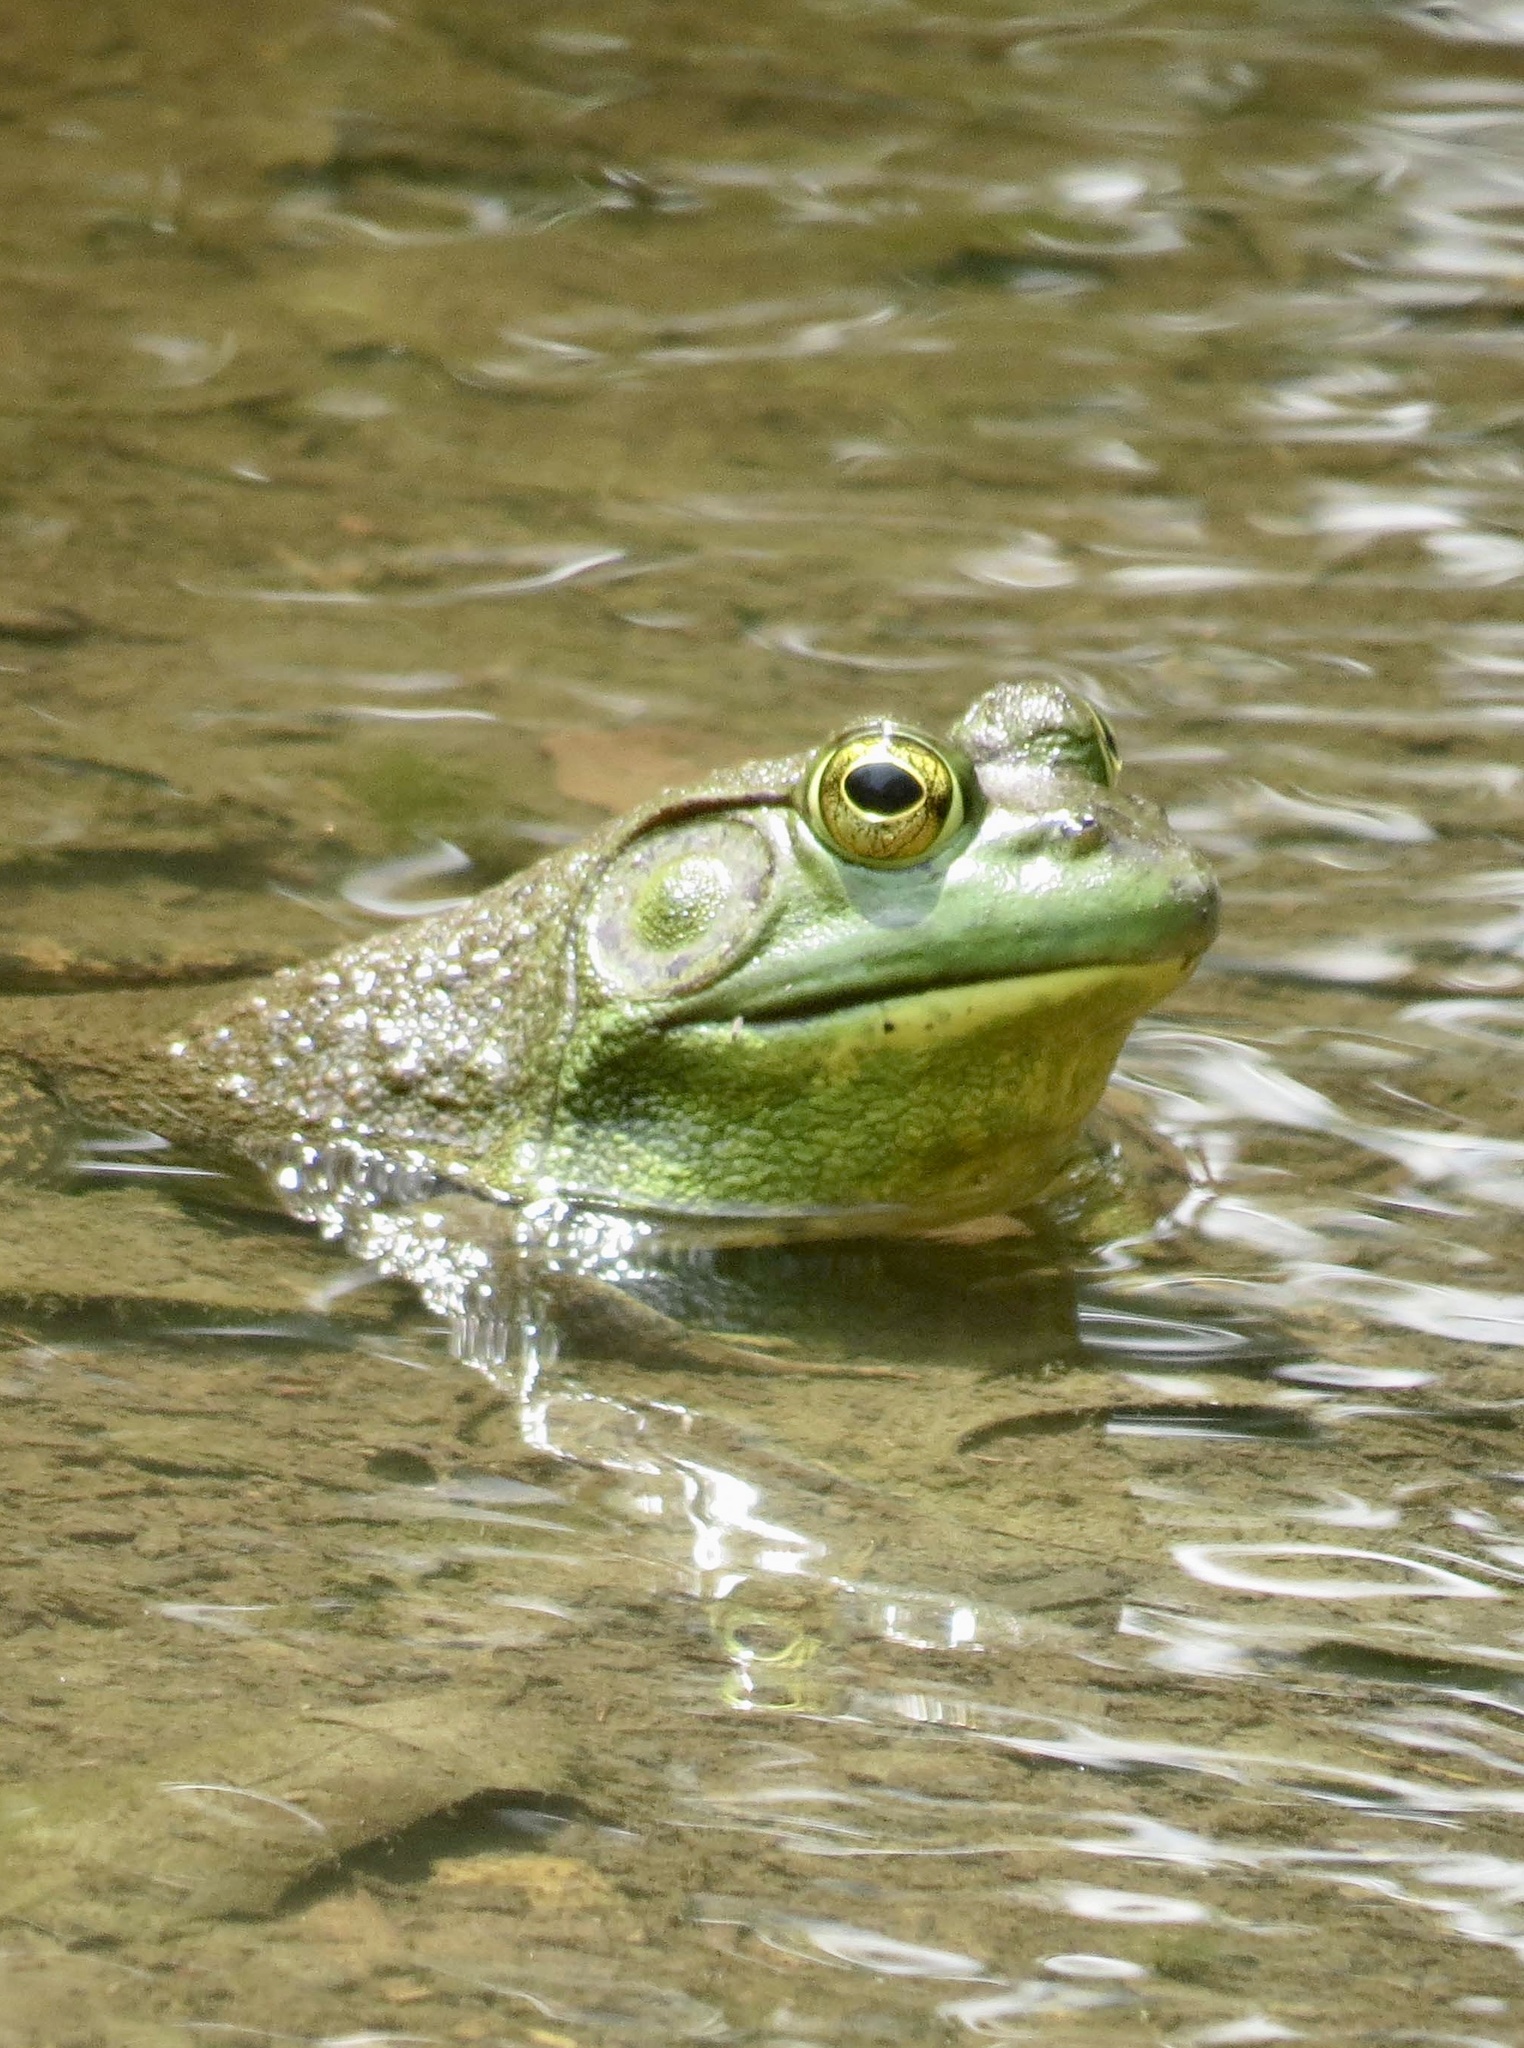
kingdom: Animalia
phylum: Chordata
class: Amphibia
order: Anura
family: Ranidae
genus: Lithobates
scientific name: Lithobates catesbeianus
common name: American bullfrog
